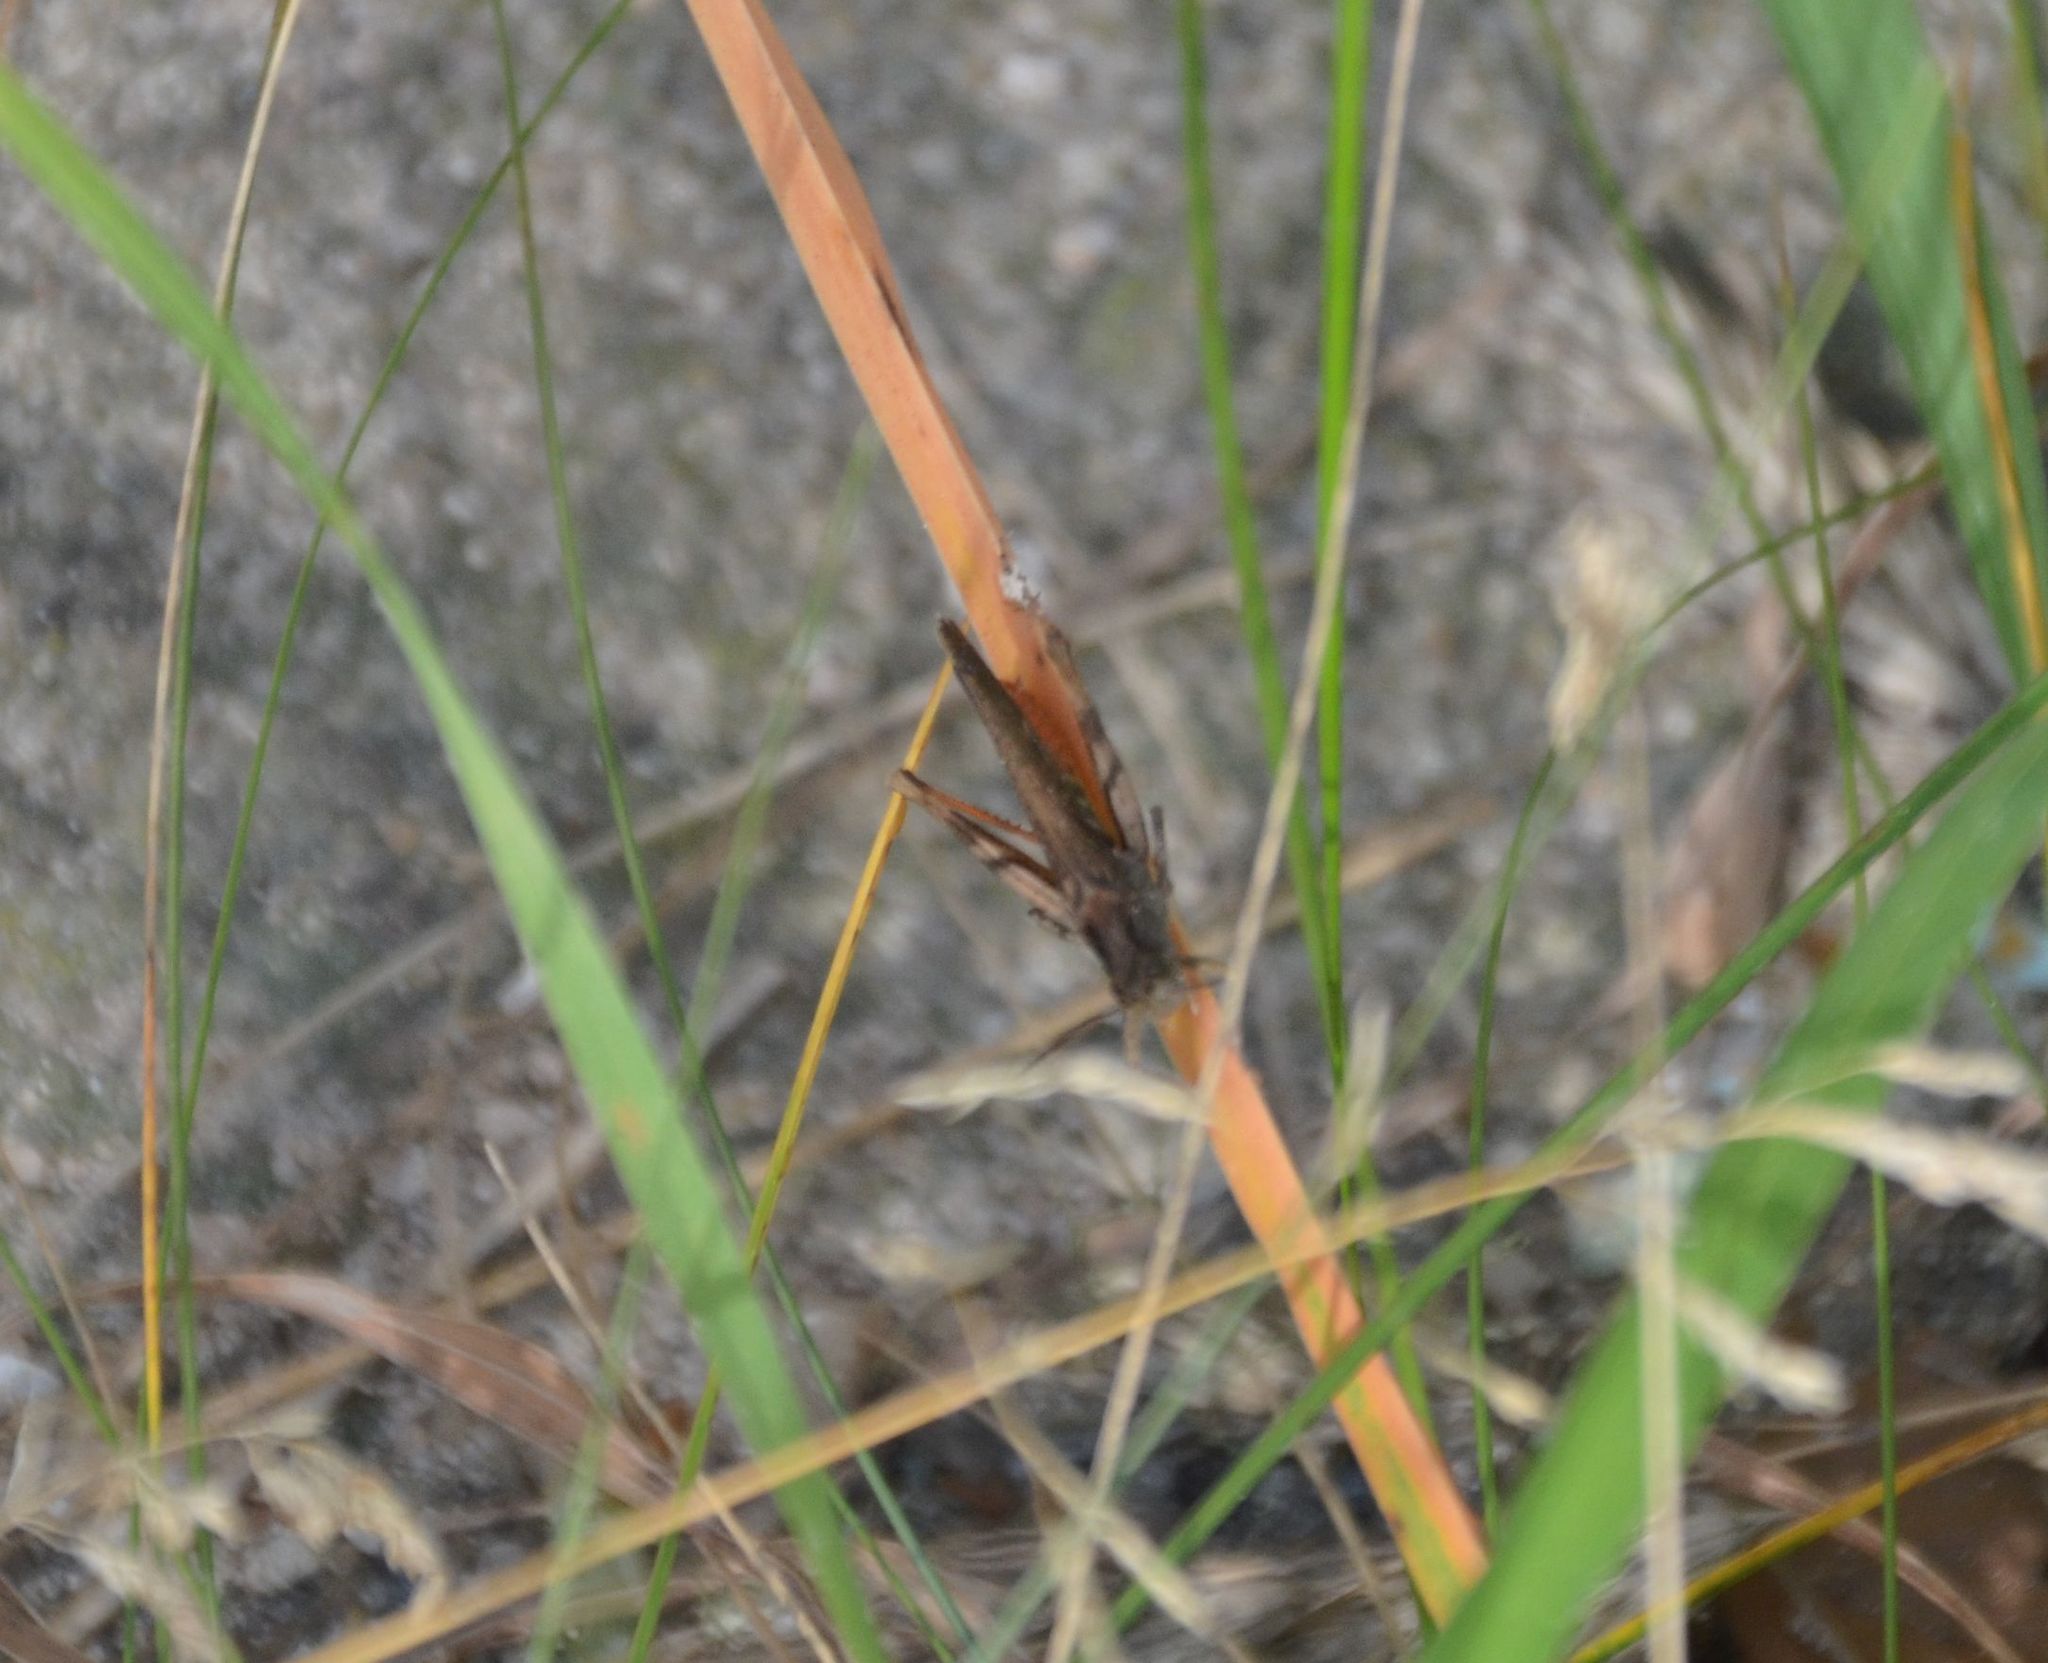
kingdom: Animalia
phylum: Arthropoda
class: Insecta
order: Orthoptera
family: Acrididae
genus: Chorthippus
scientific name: Chorthippus brunneus
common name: Field grasshopper
